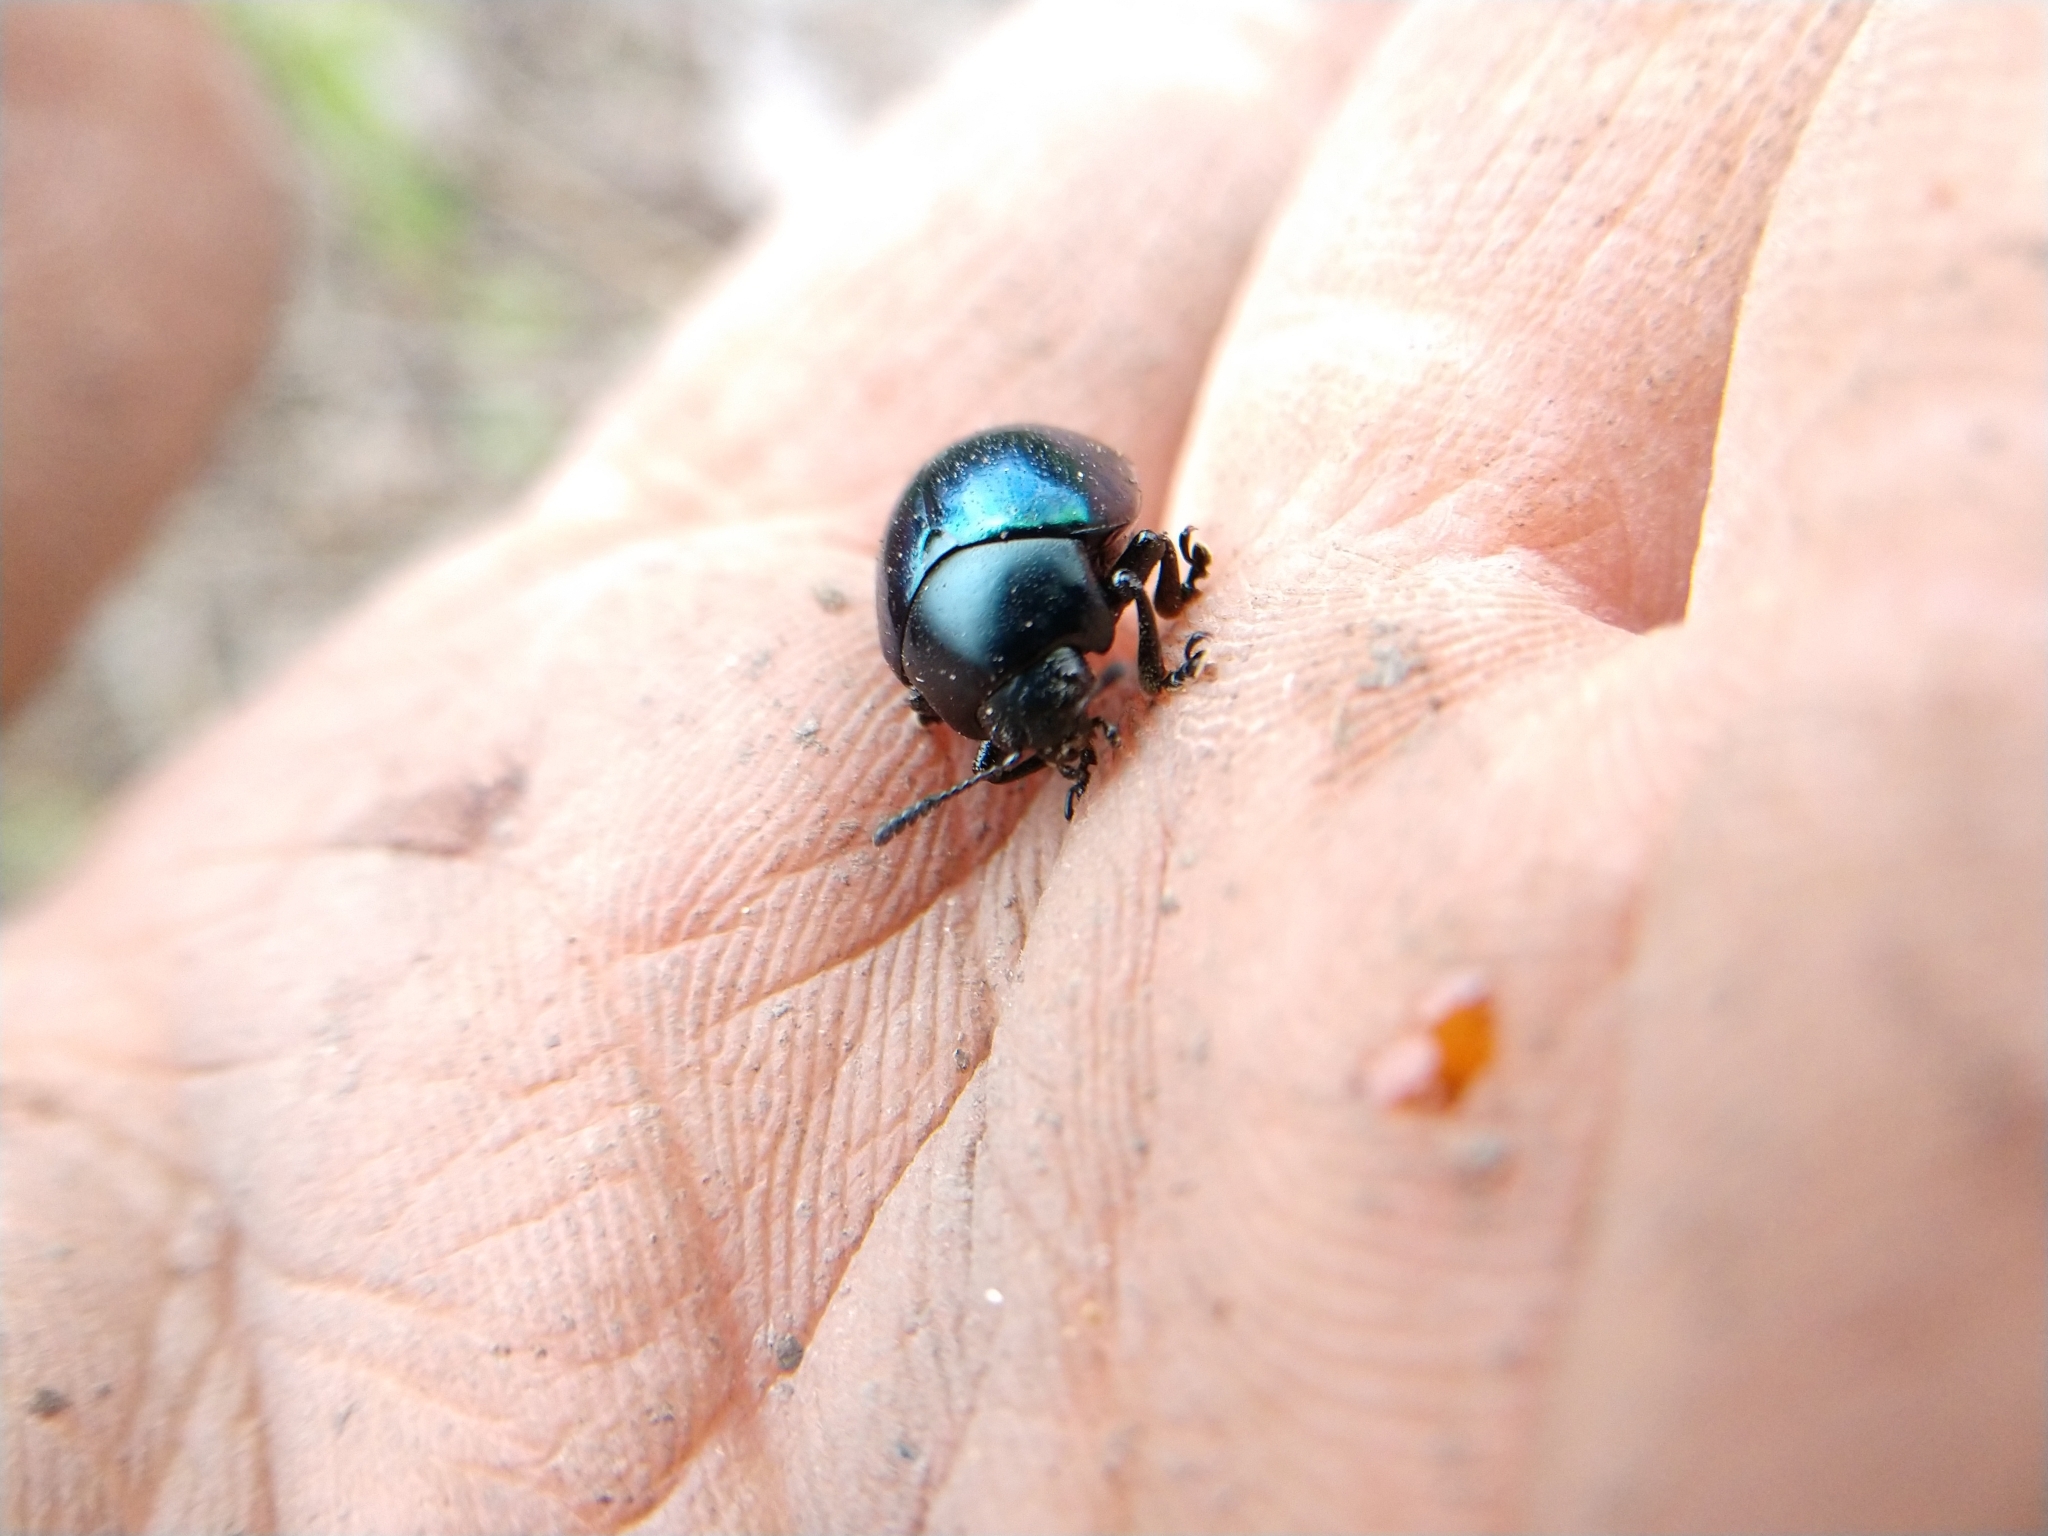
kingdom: Animalia
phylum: Arthropoda
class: Insecta
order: Coleoptera
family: Chrysomelidae
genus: Leptinotarsa
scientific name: Leptinotarsa haldemani
